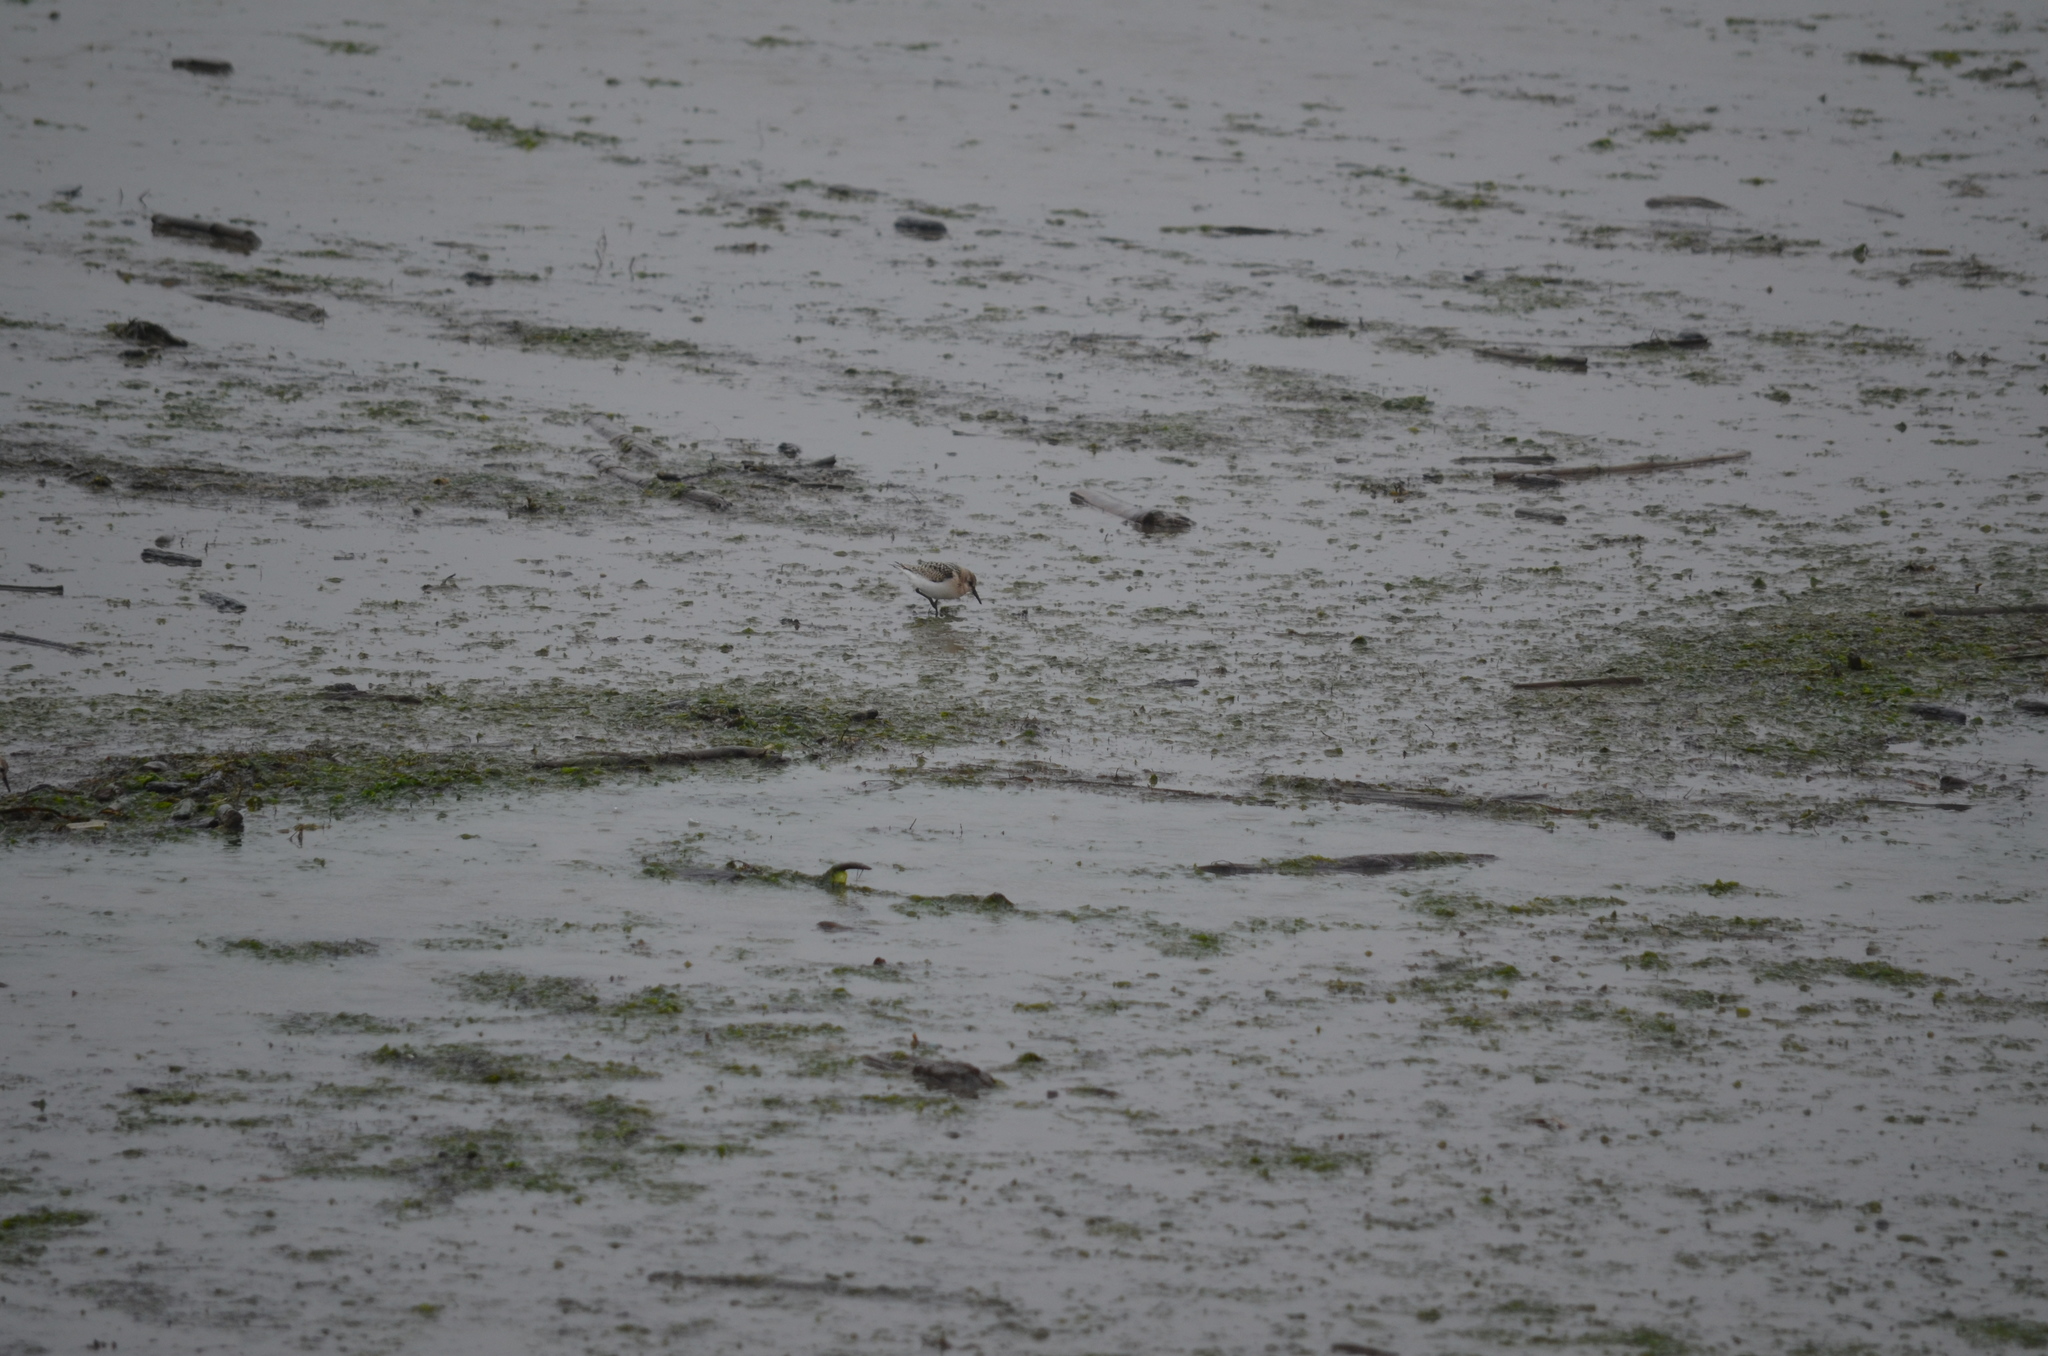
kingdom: Animalia
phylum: Chordata
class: Aves
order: Charadriiformes
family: Scolopacidae
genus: Calidris
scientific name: Calidris alba
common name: Sanderling
